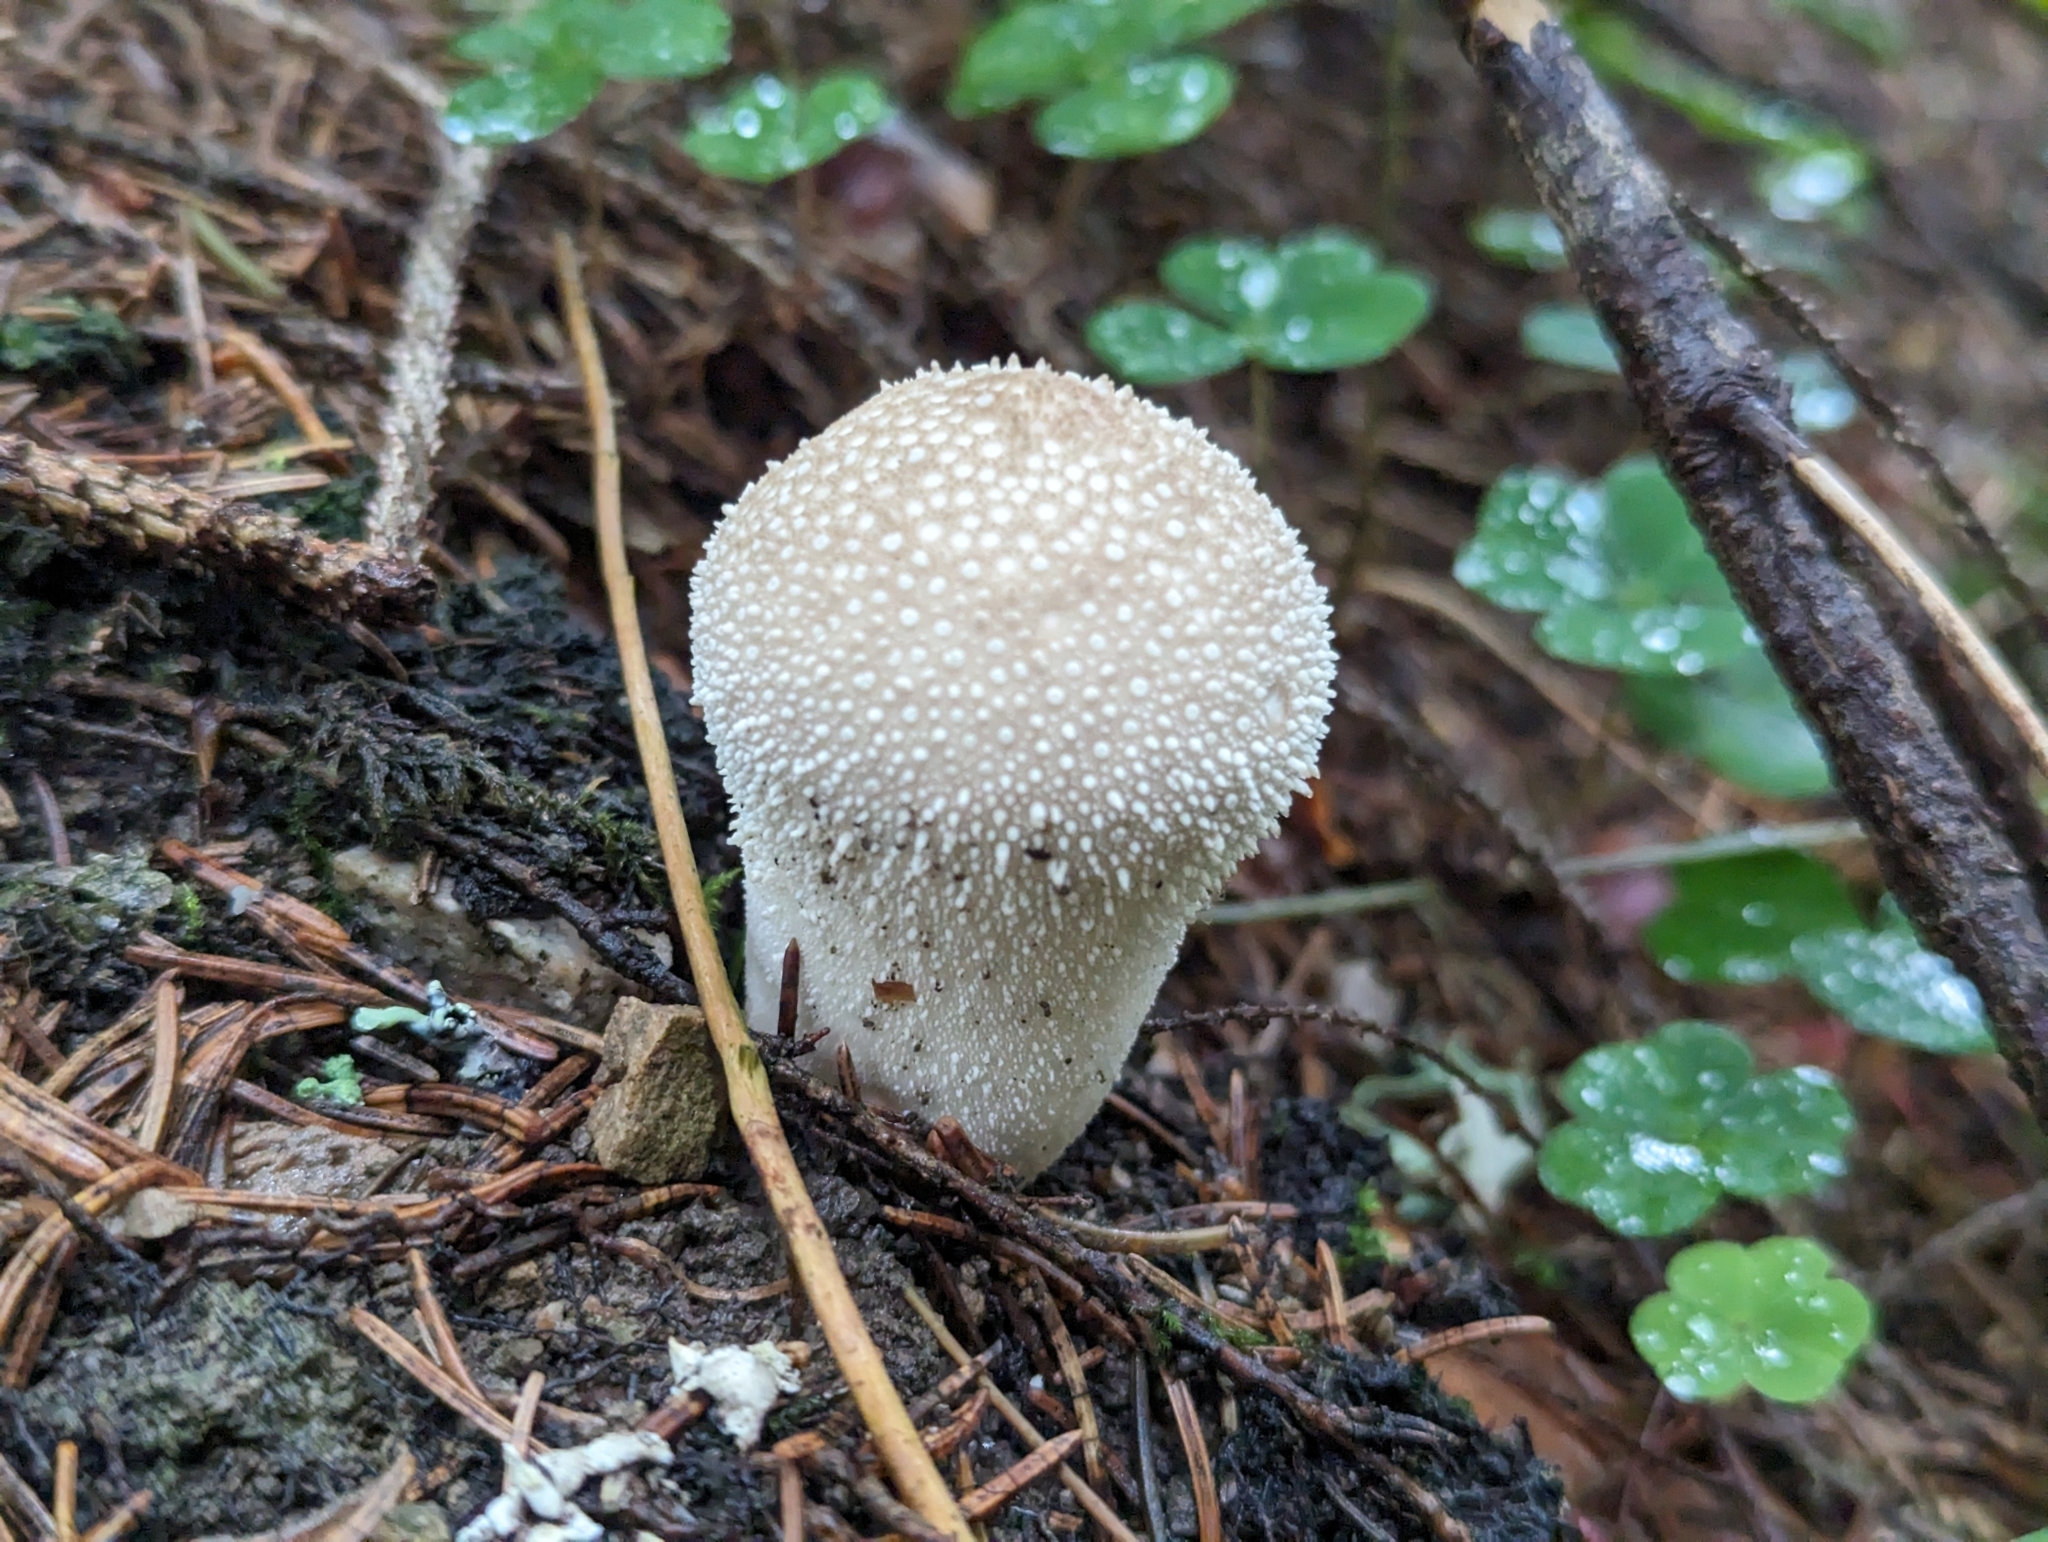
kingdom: Fungi
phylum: Basidiomycota
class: Agaricomycetes
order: Agaricales
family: Lycoperdaceae
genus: Lycoperdon
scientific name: Lycoperdon perlatum
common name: Common puffball
